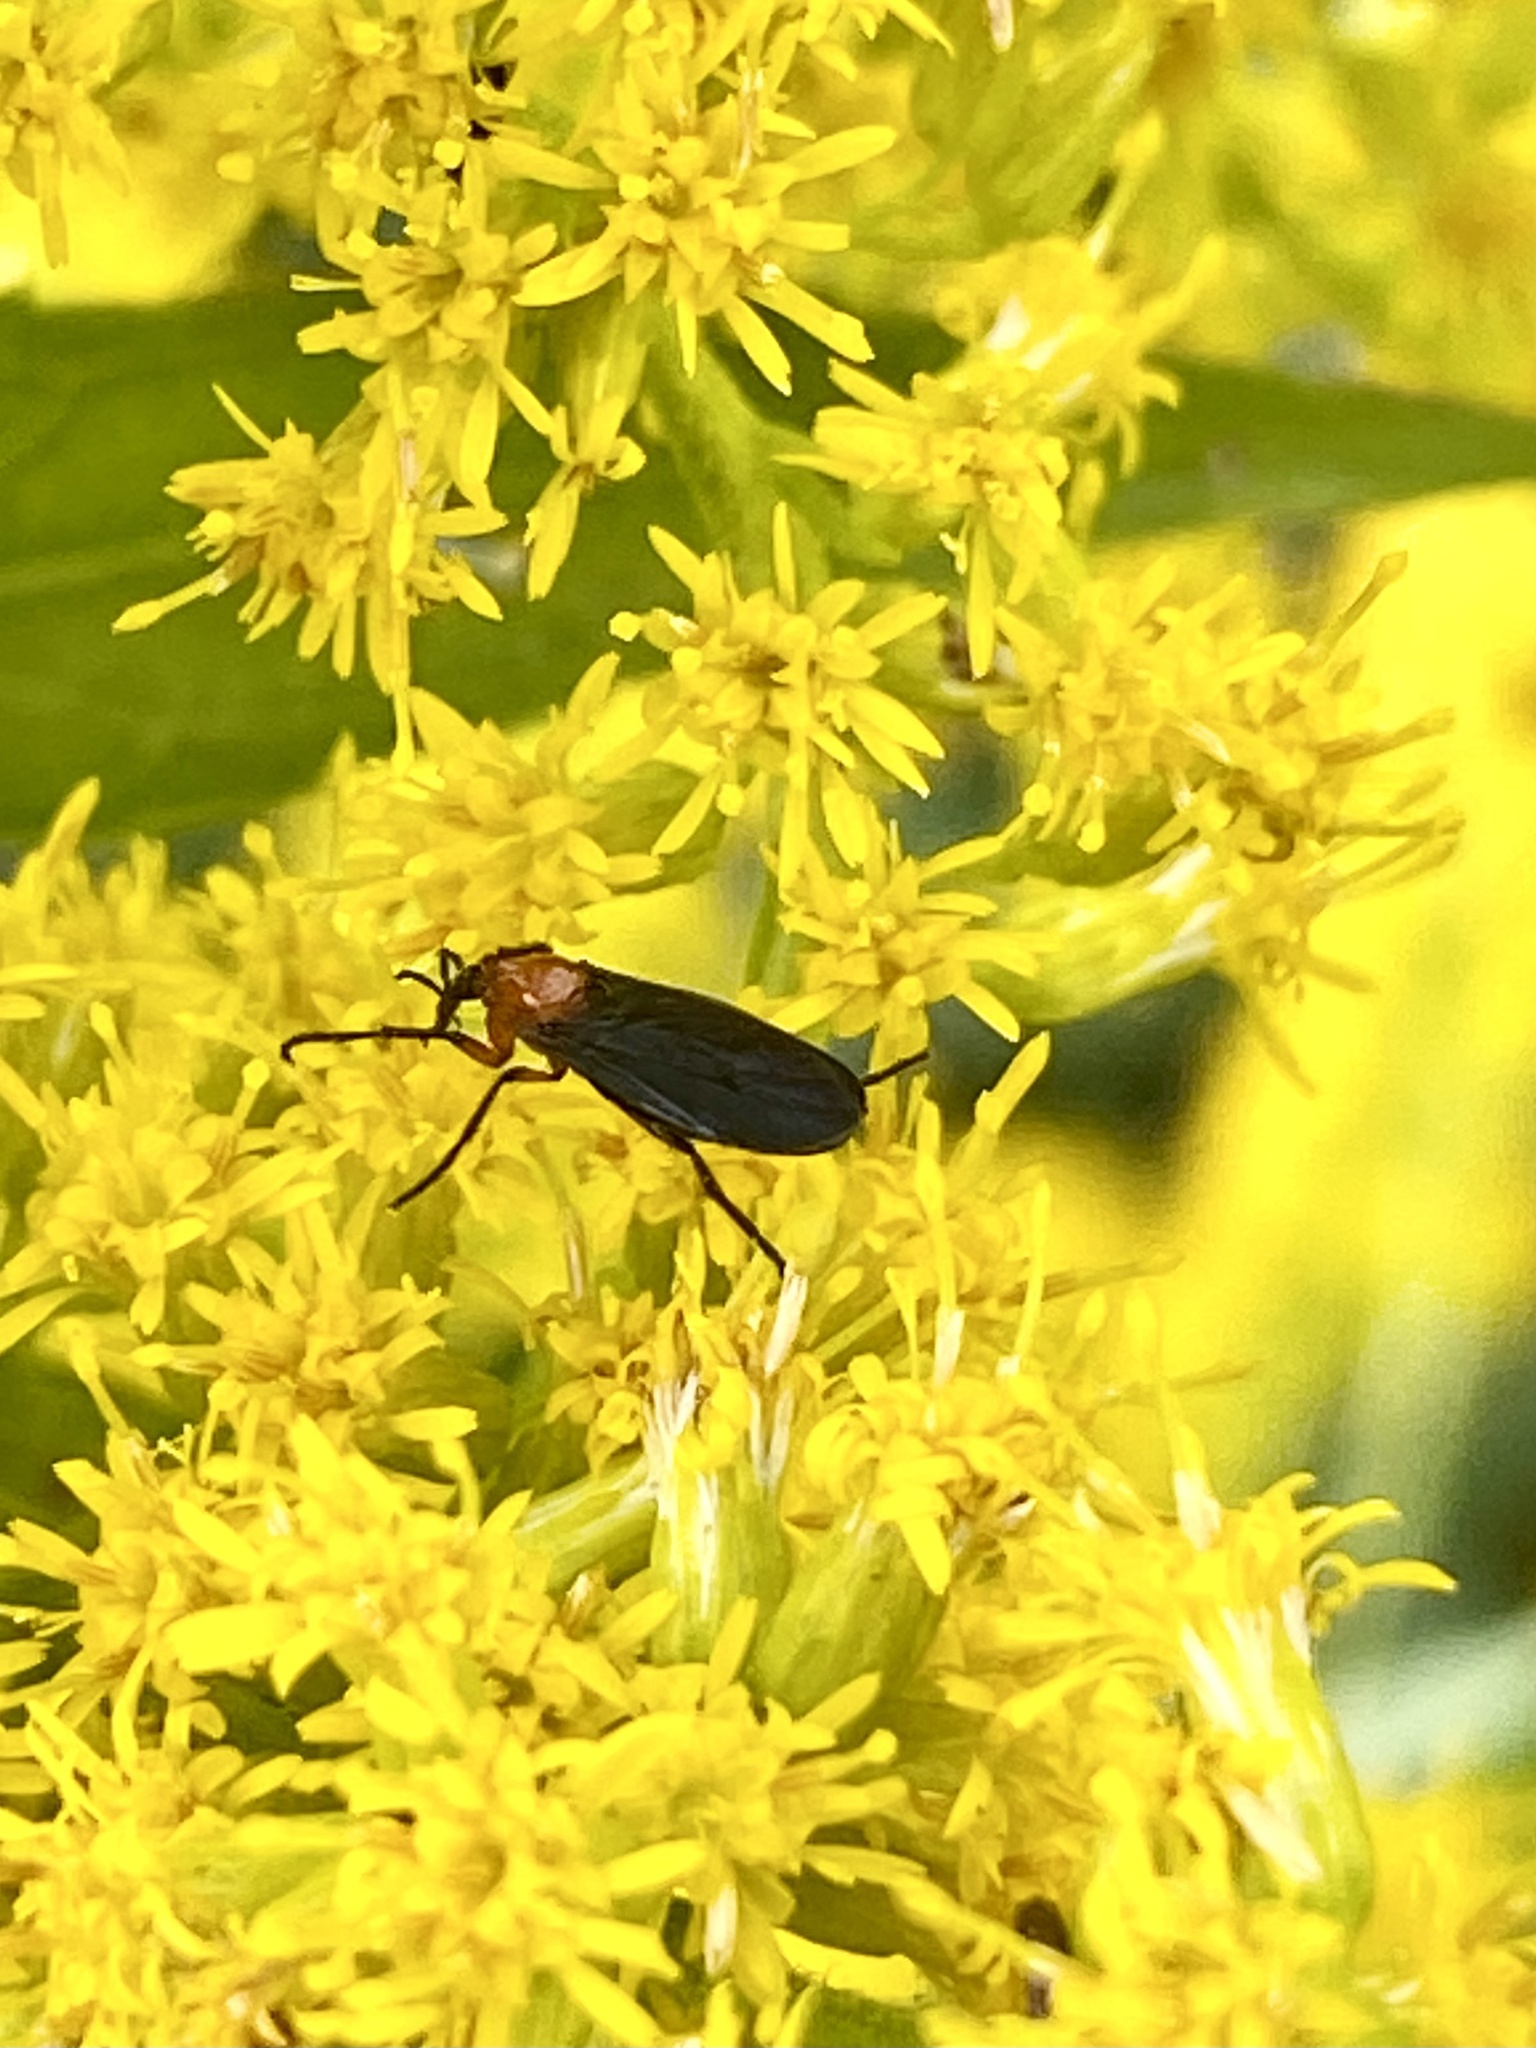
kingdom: Animalia
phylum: Arthropoda
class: Insecta
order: Diptera
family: Bibionidae
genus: Dilophus
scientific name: Dilophus spinipes
